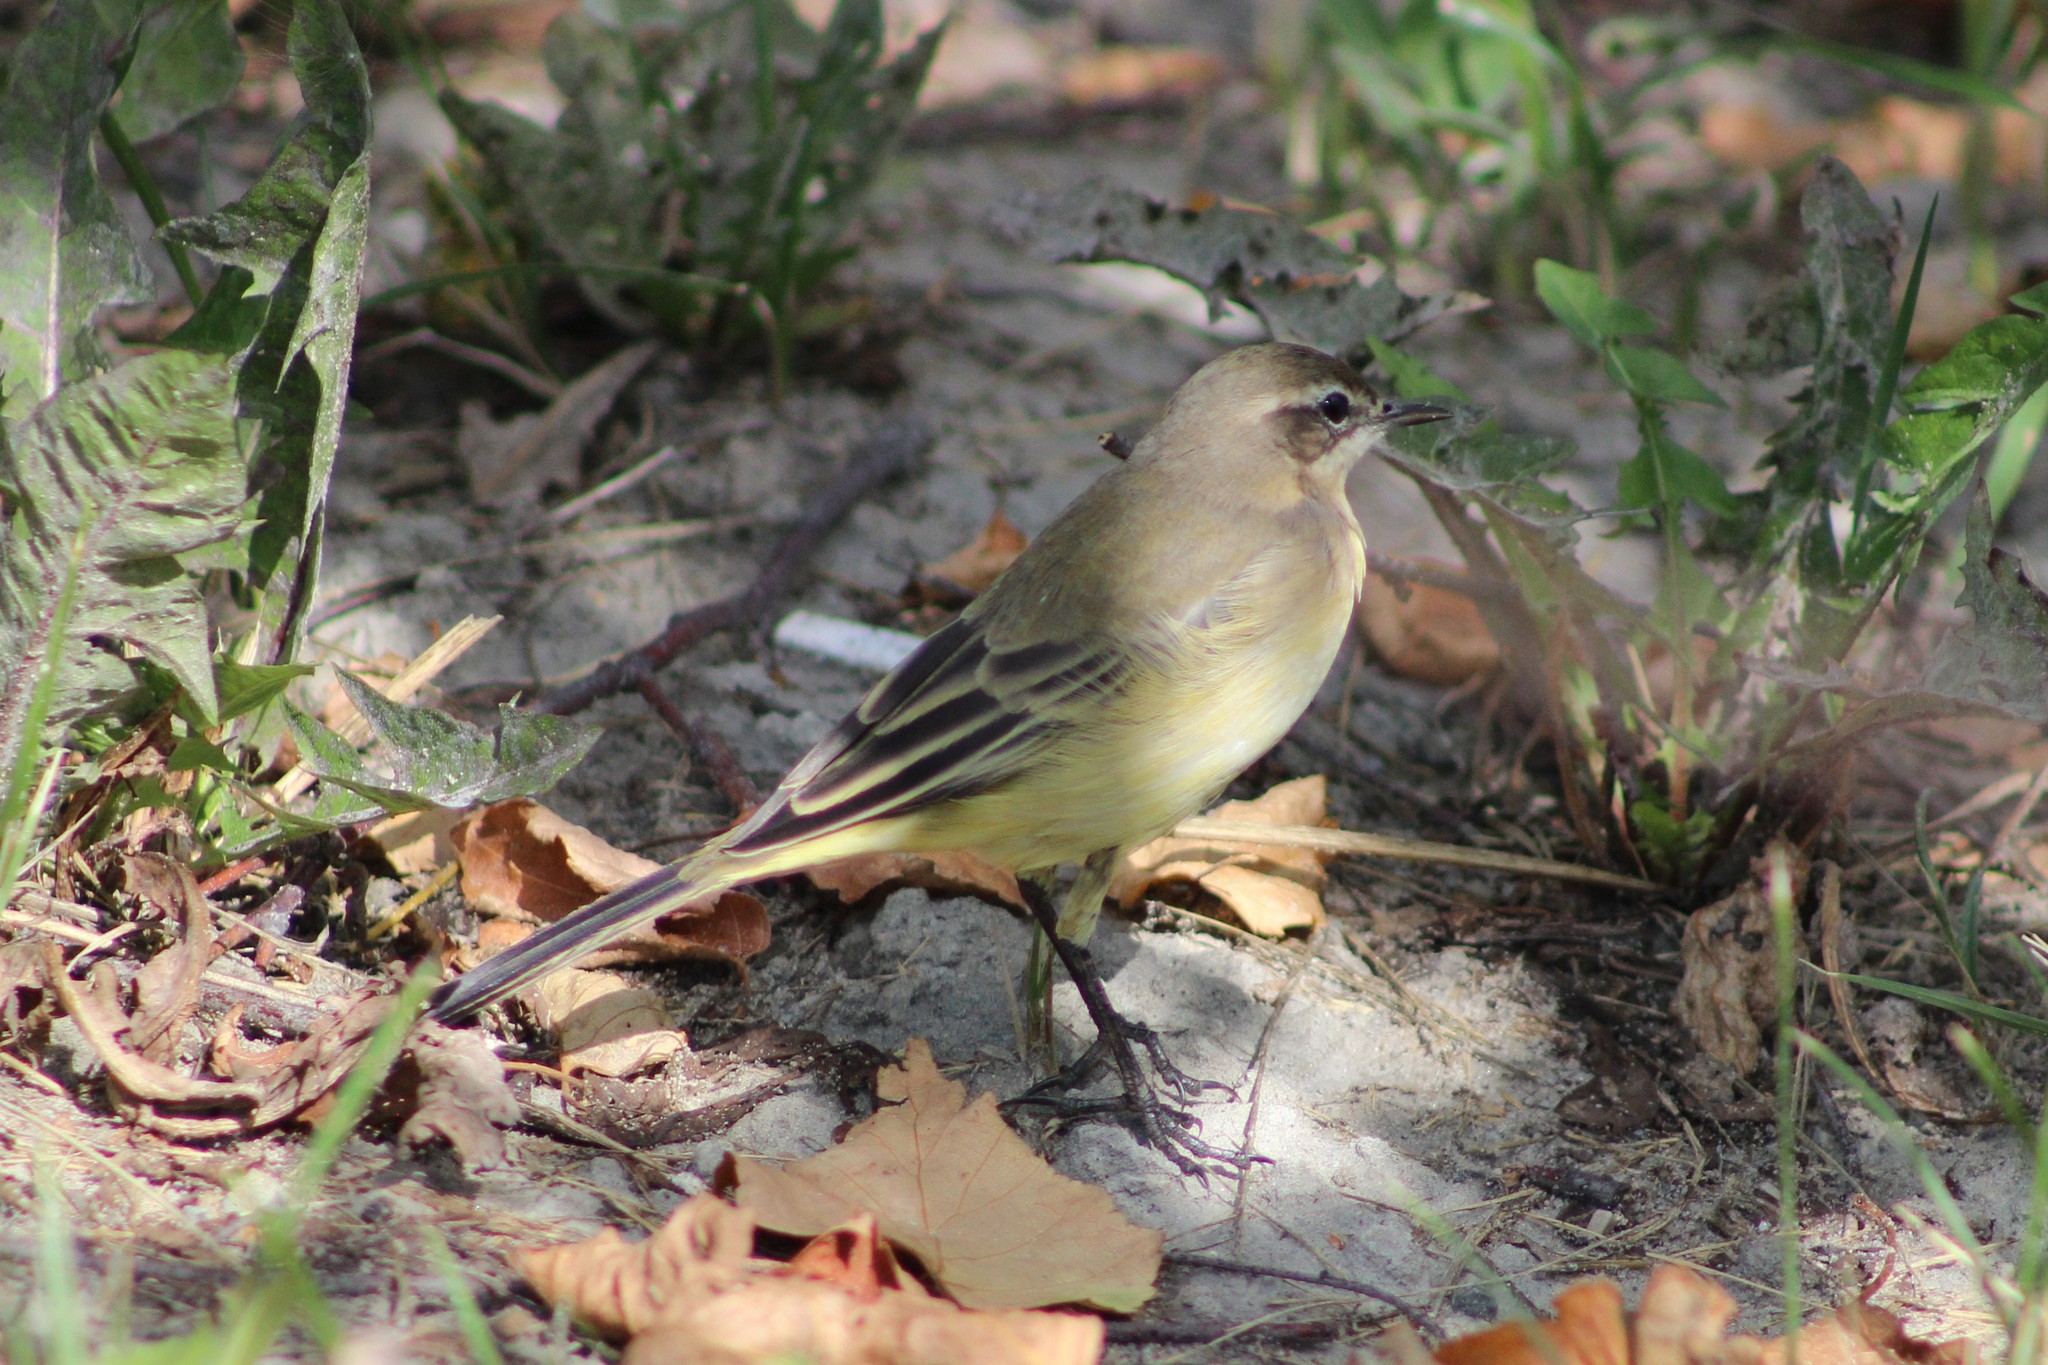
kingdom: Animalia
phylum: Chordata
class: Aves
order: Passeriformes
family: Motacillidae
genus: Motacilla
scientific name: Motacilla flava
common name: Western yellow wagtail
